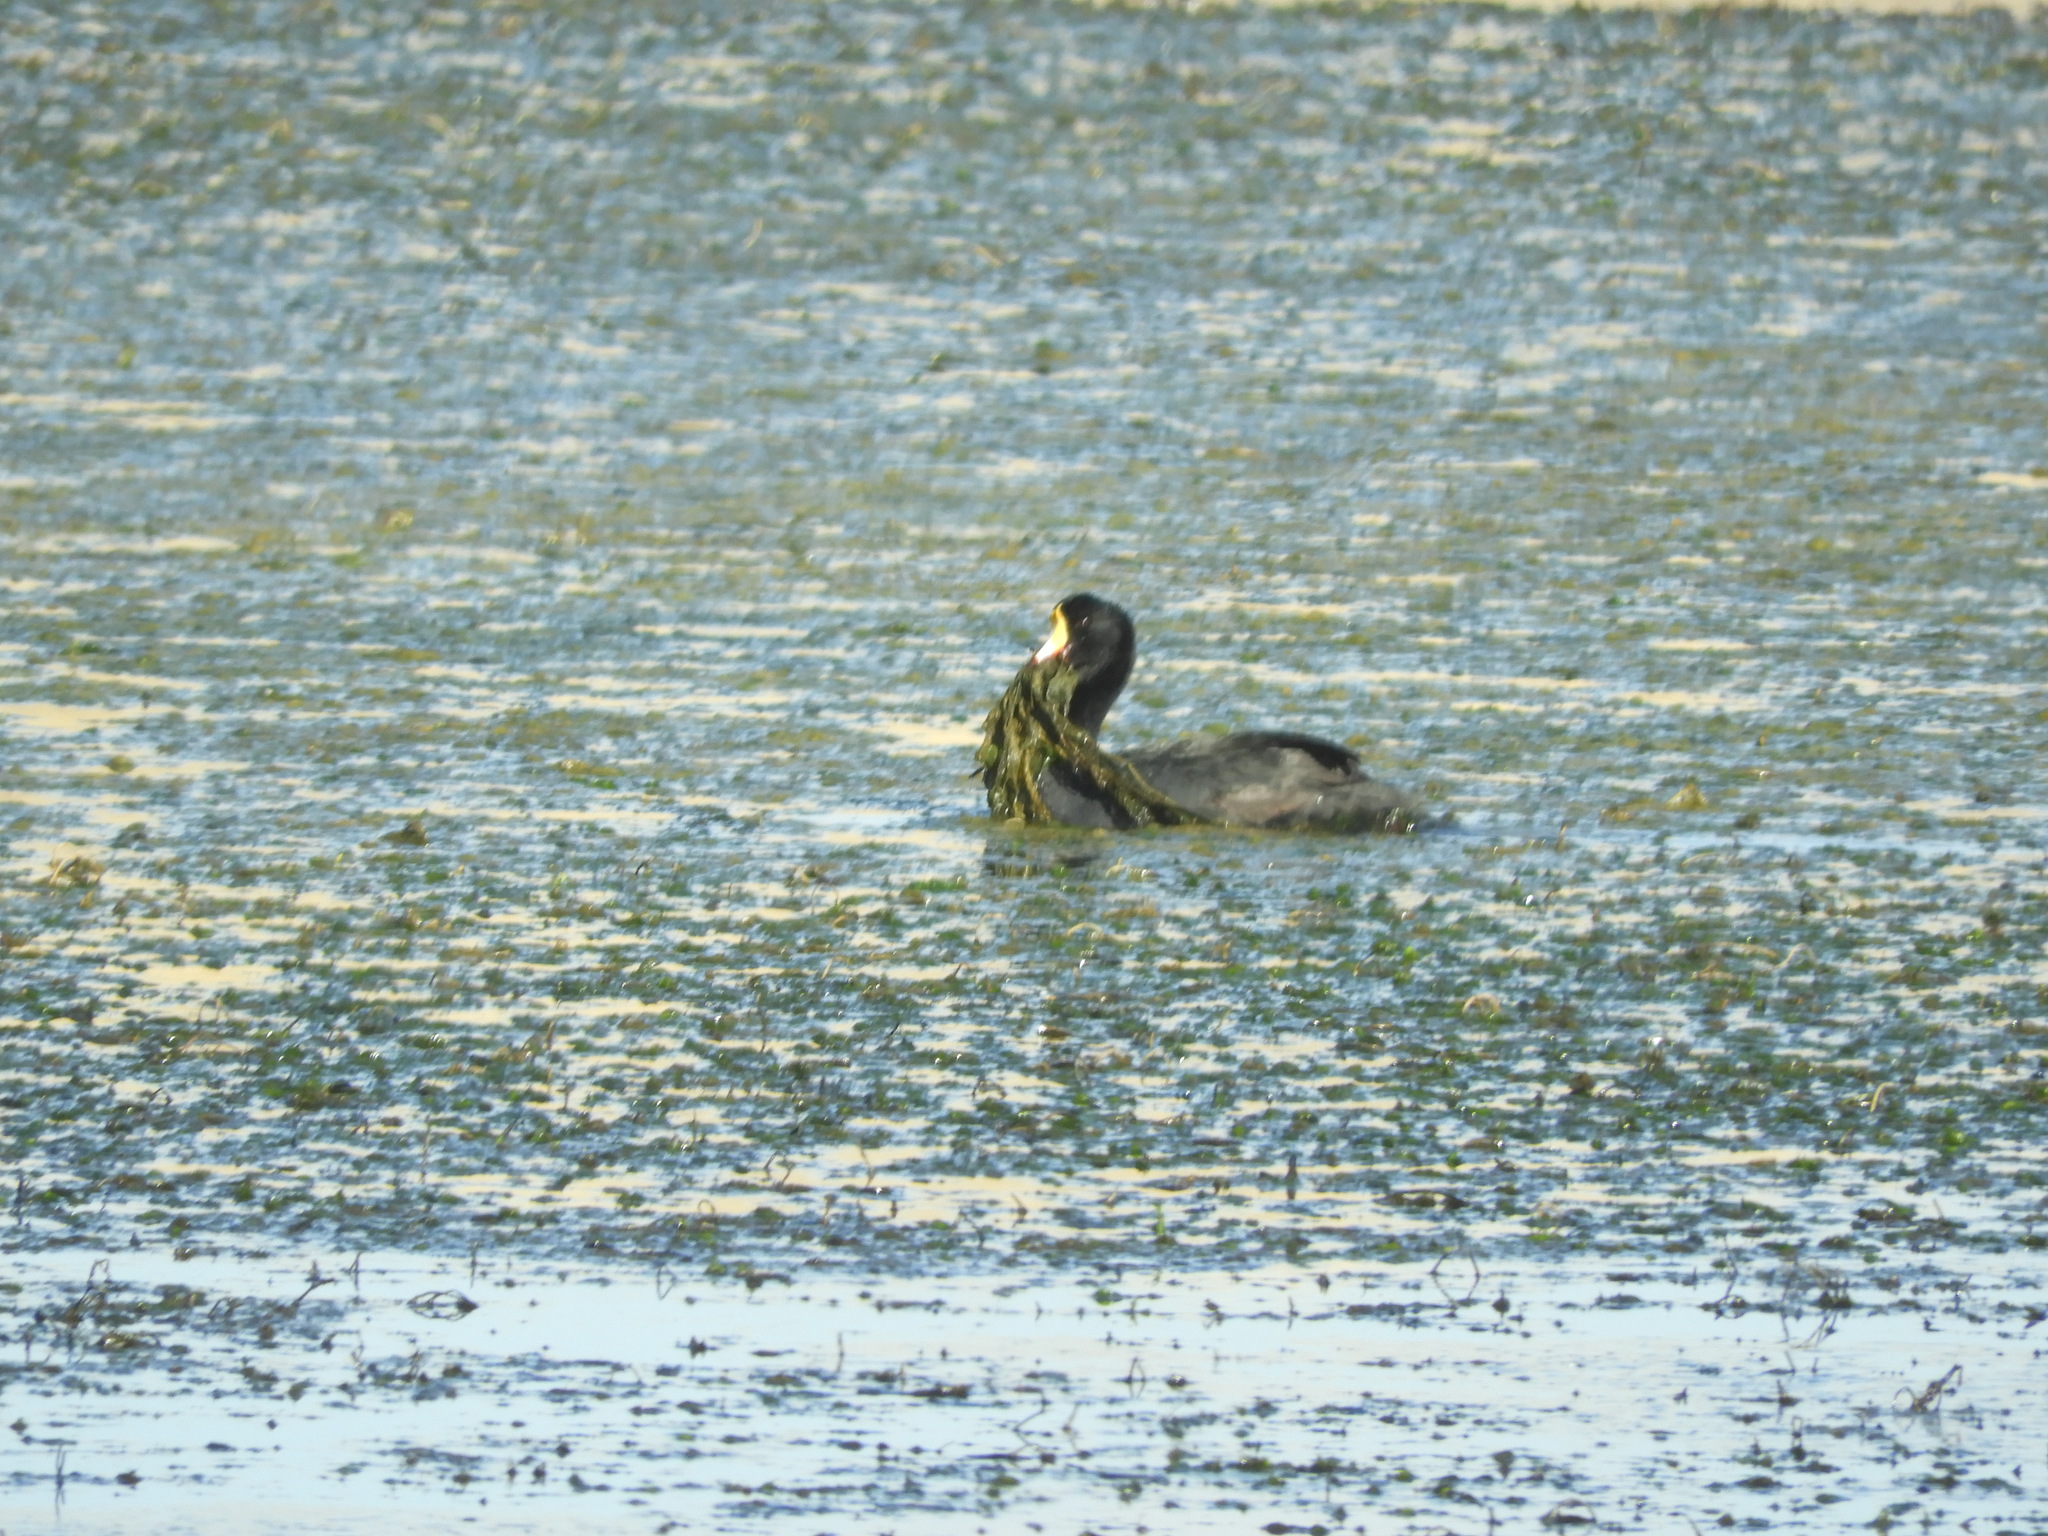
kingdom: Animalia
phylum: Chordata
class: Aves
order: Gruiformes
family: Rallidae
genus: Fulica
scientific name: Fulica gigantea
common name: Giant coot
